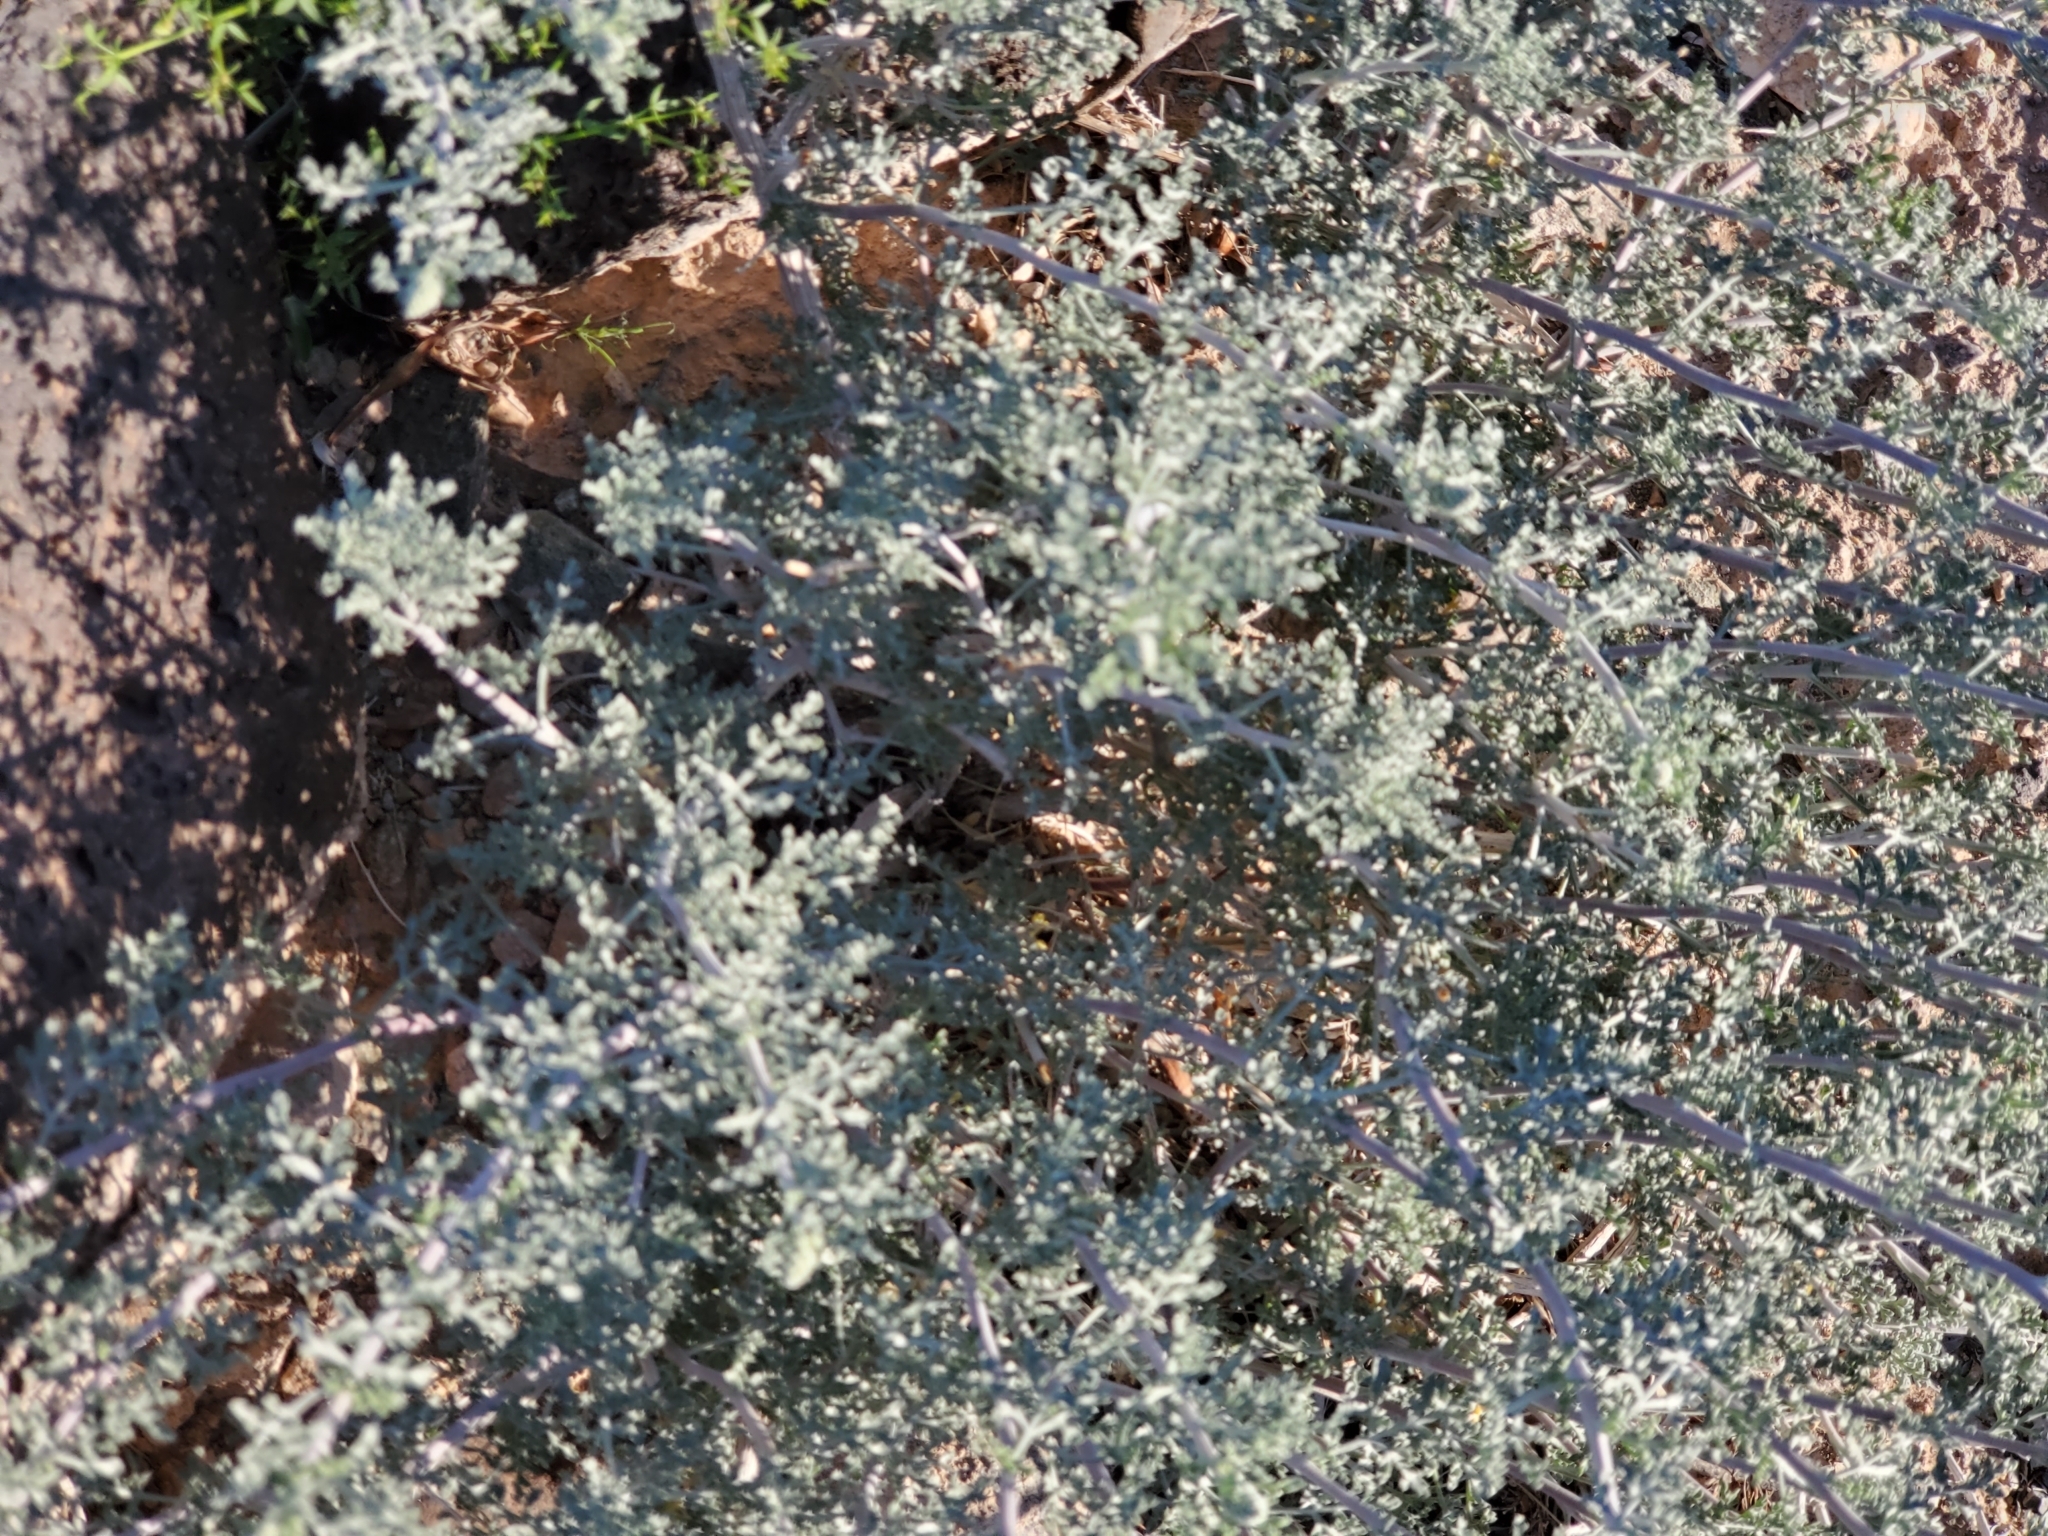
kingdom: Plantae
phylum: Tracheophyta
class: Magnoliopsida
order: Asterales
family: Asteraceae
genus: Ambrosia
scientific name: Ambrosia dumosa
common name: Bur-sage
